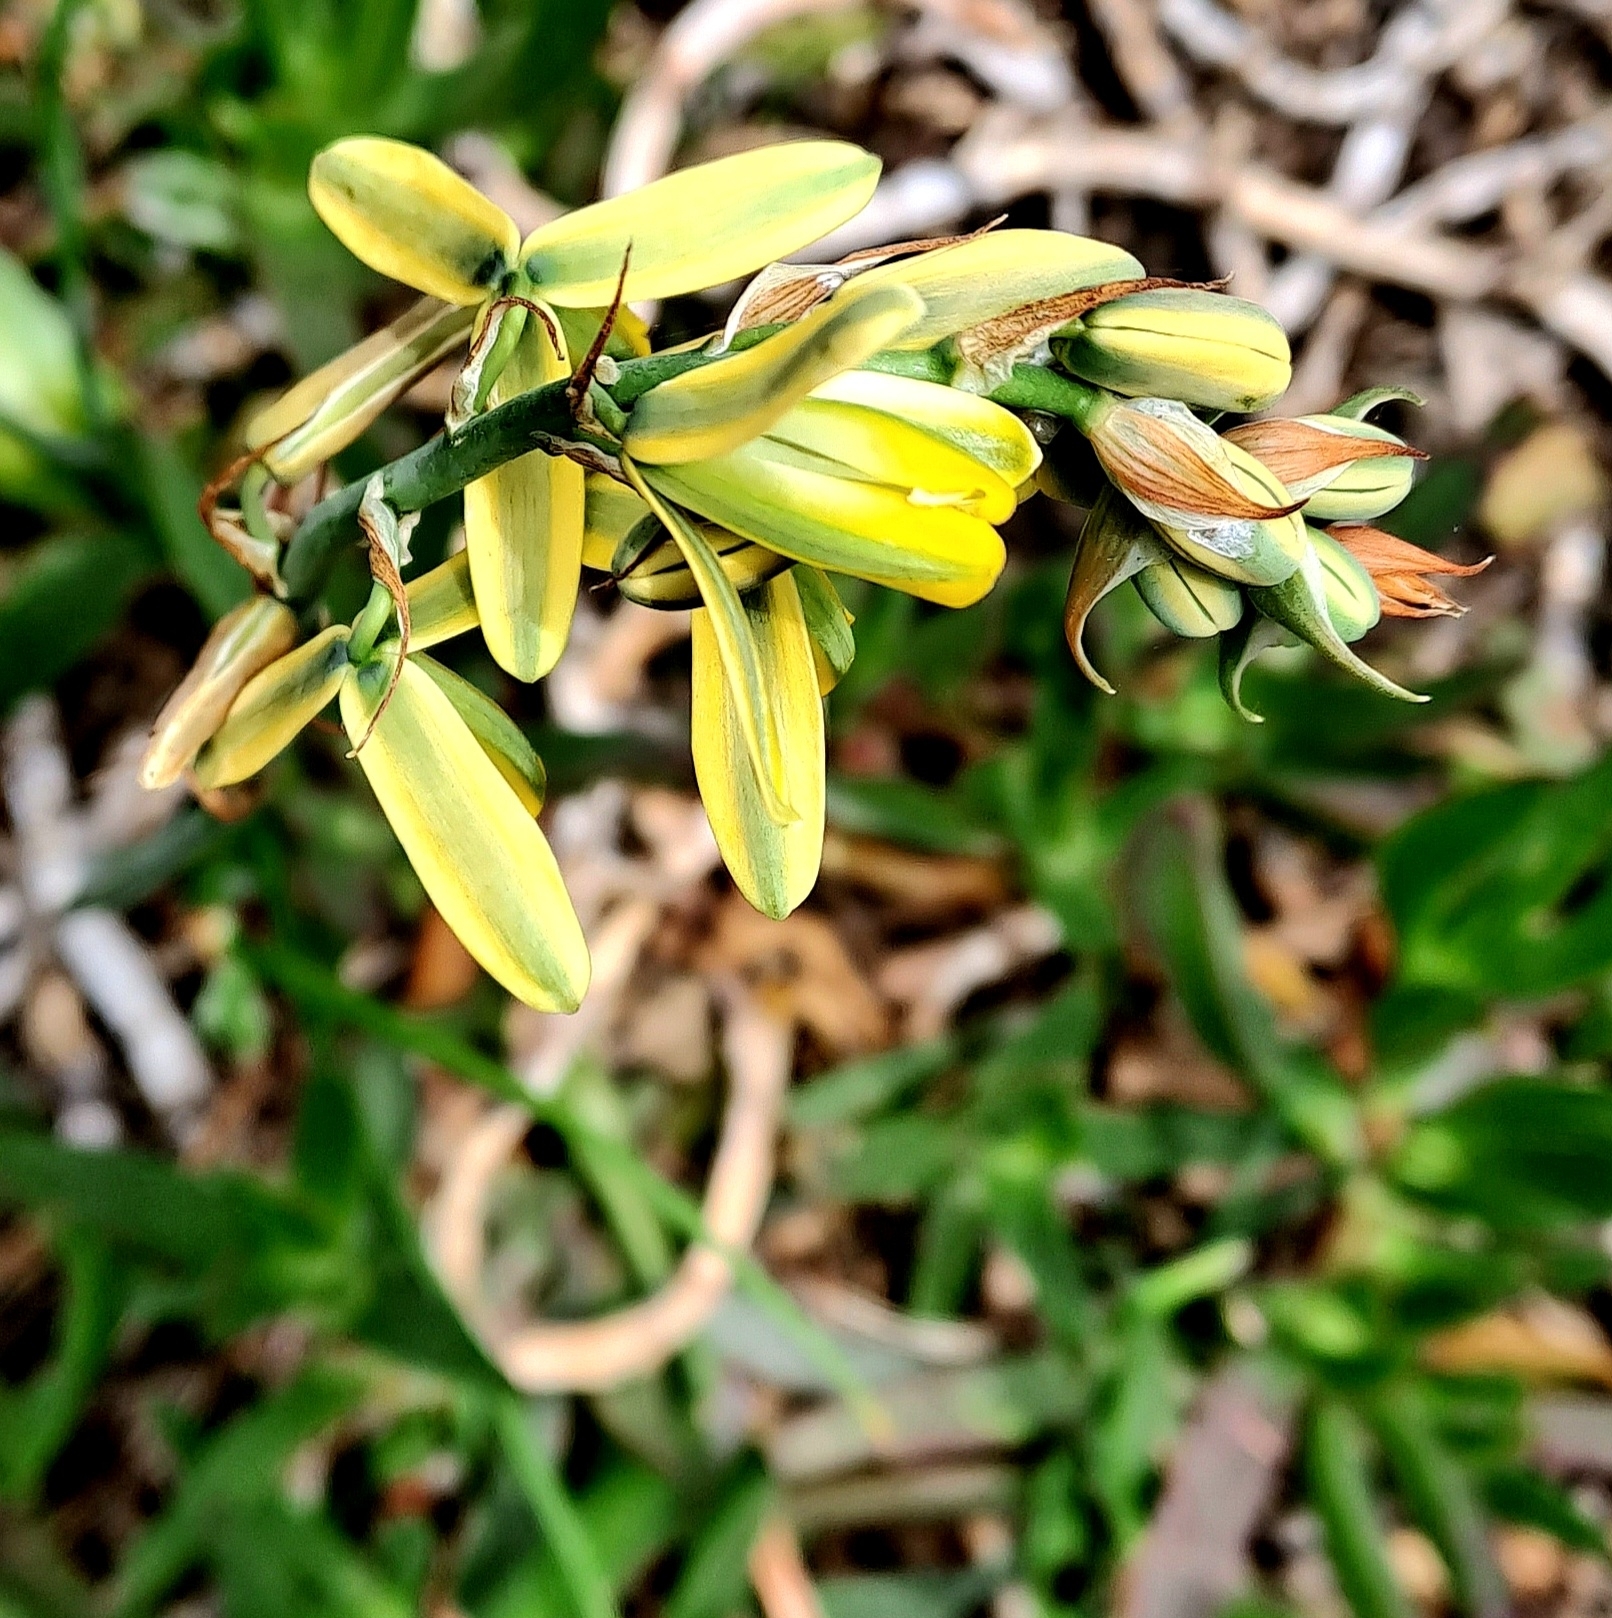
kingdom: Plantae
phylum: Tracheophyta
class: Liliopsida
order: Asparagales
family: Asparagaceae
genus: Albuca
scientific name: Albuca flaccida
